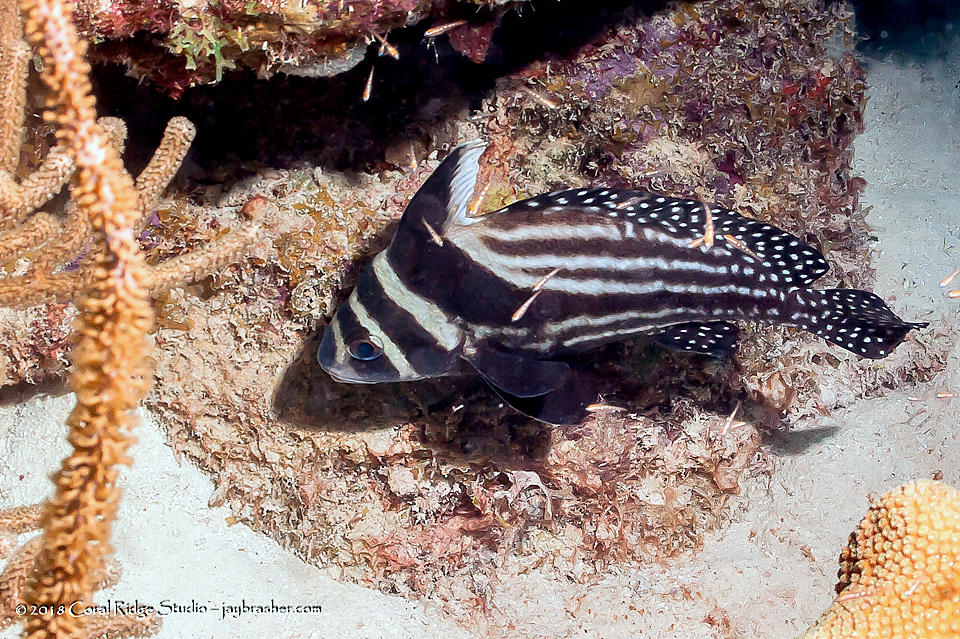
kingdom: Animalia
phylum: Chordata
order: Perciformes
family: Sciaenidae
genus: Equetus
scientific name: Equetus punctatus
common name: Spotted drum
